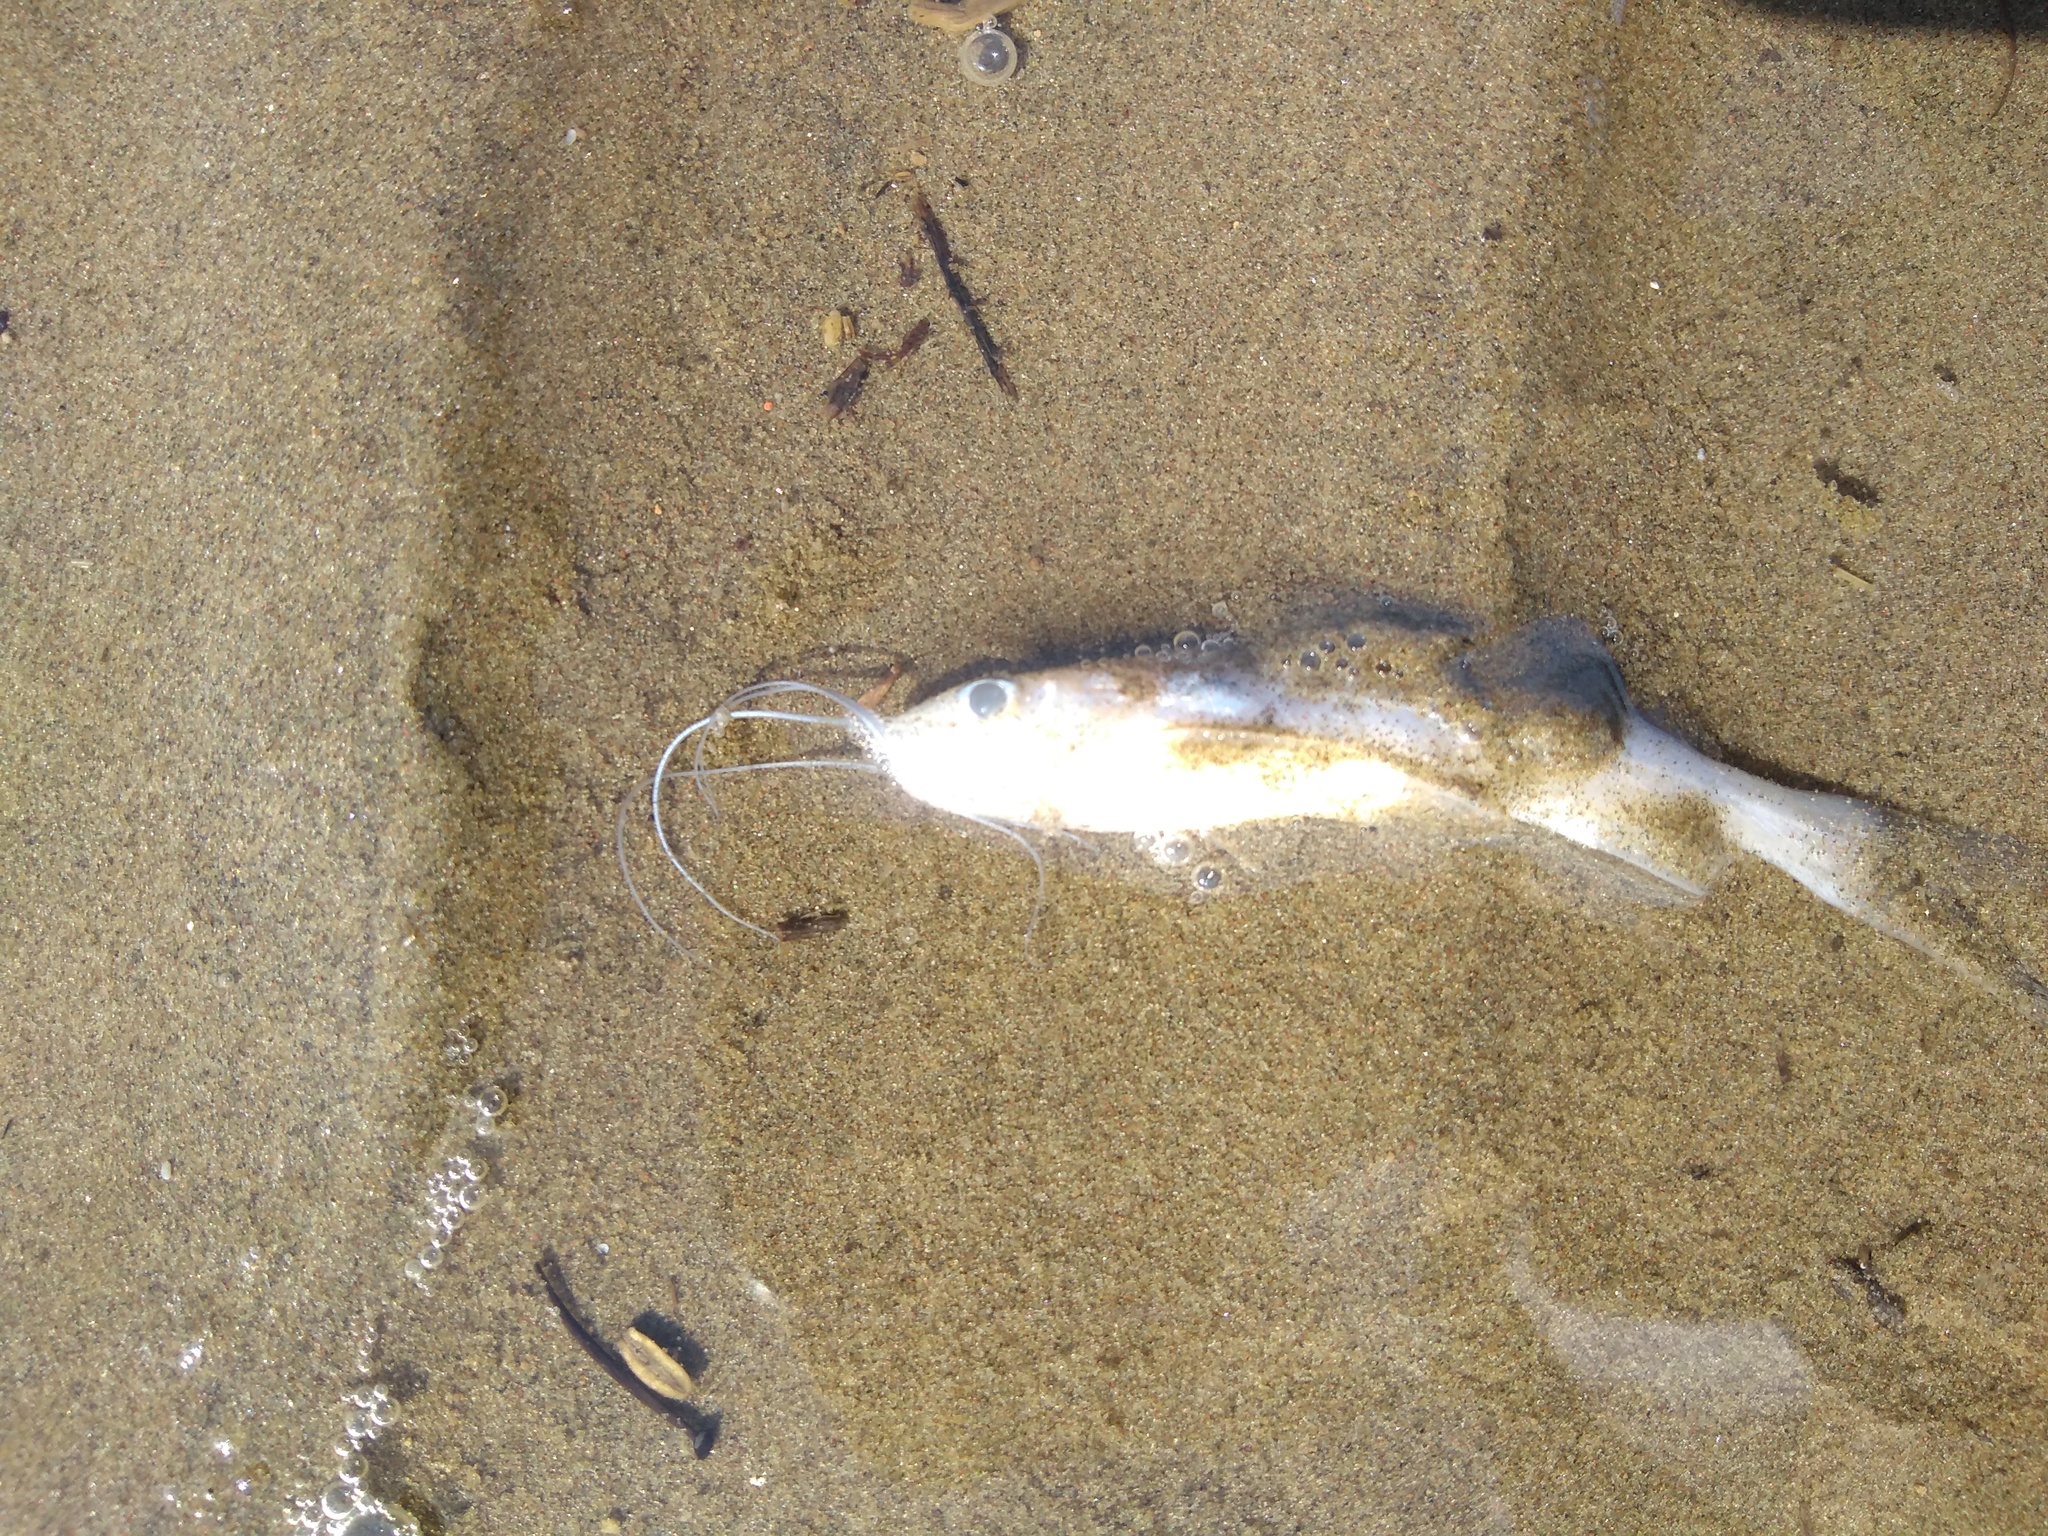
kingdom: Animalia
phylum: Chordata
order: Siluriformes
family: Pimelodidae
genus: Parapimelodus
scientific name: Parapimelodus valenciennis
